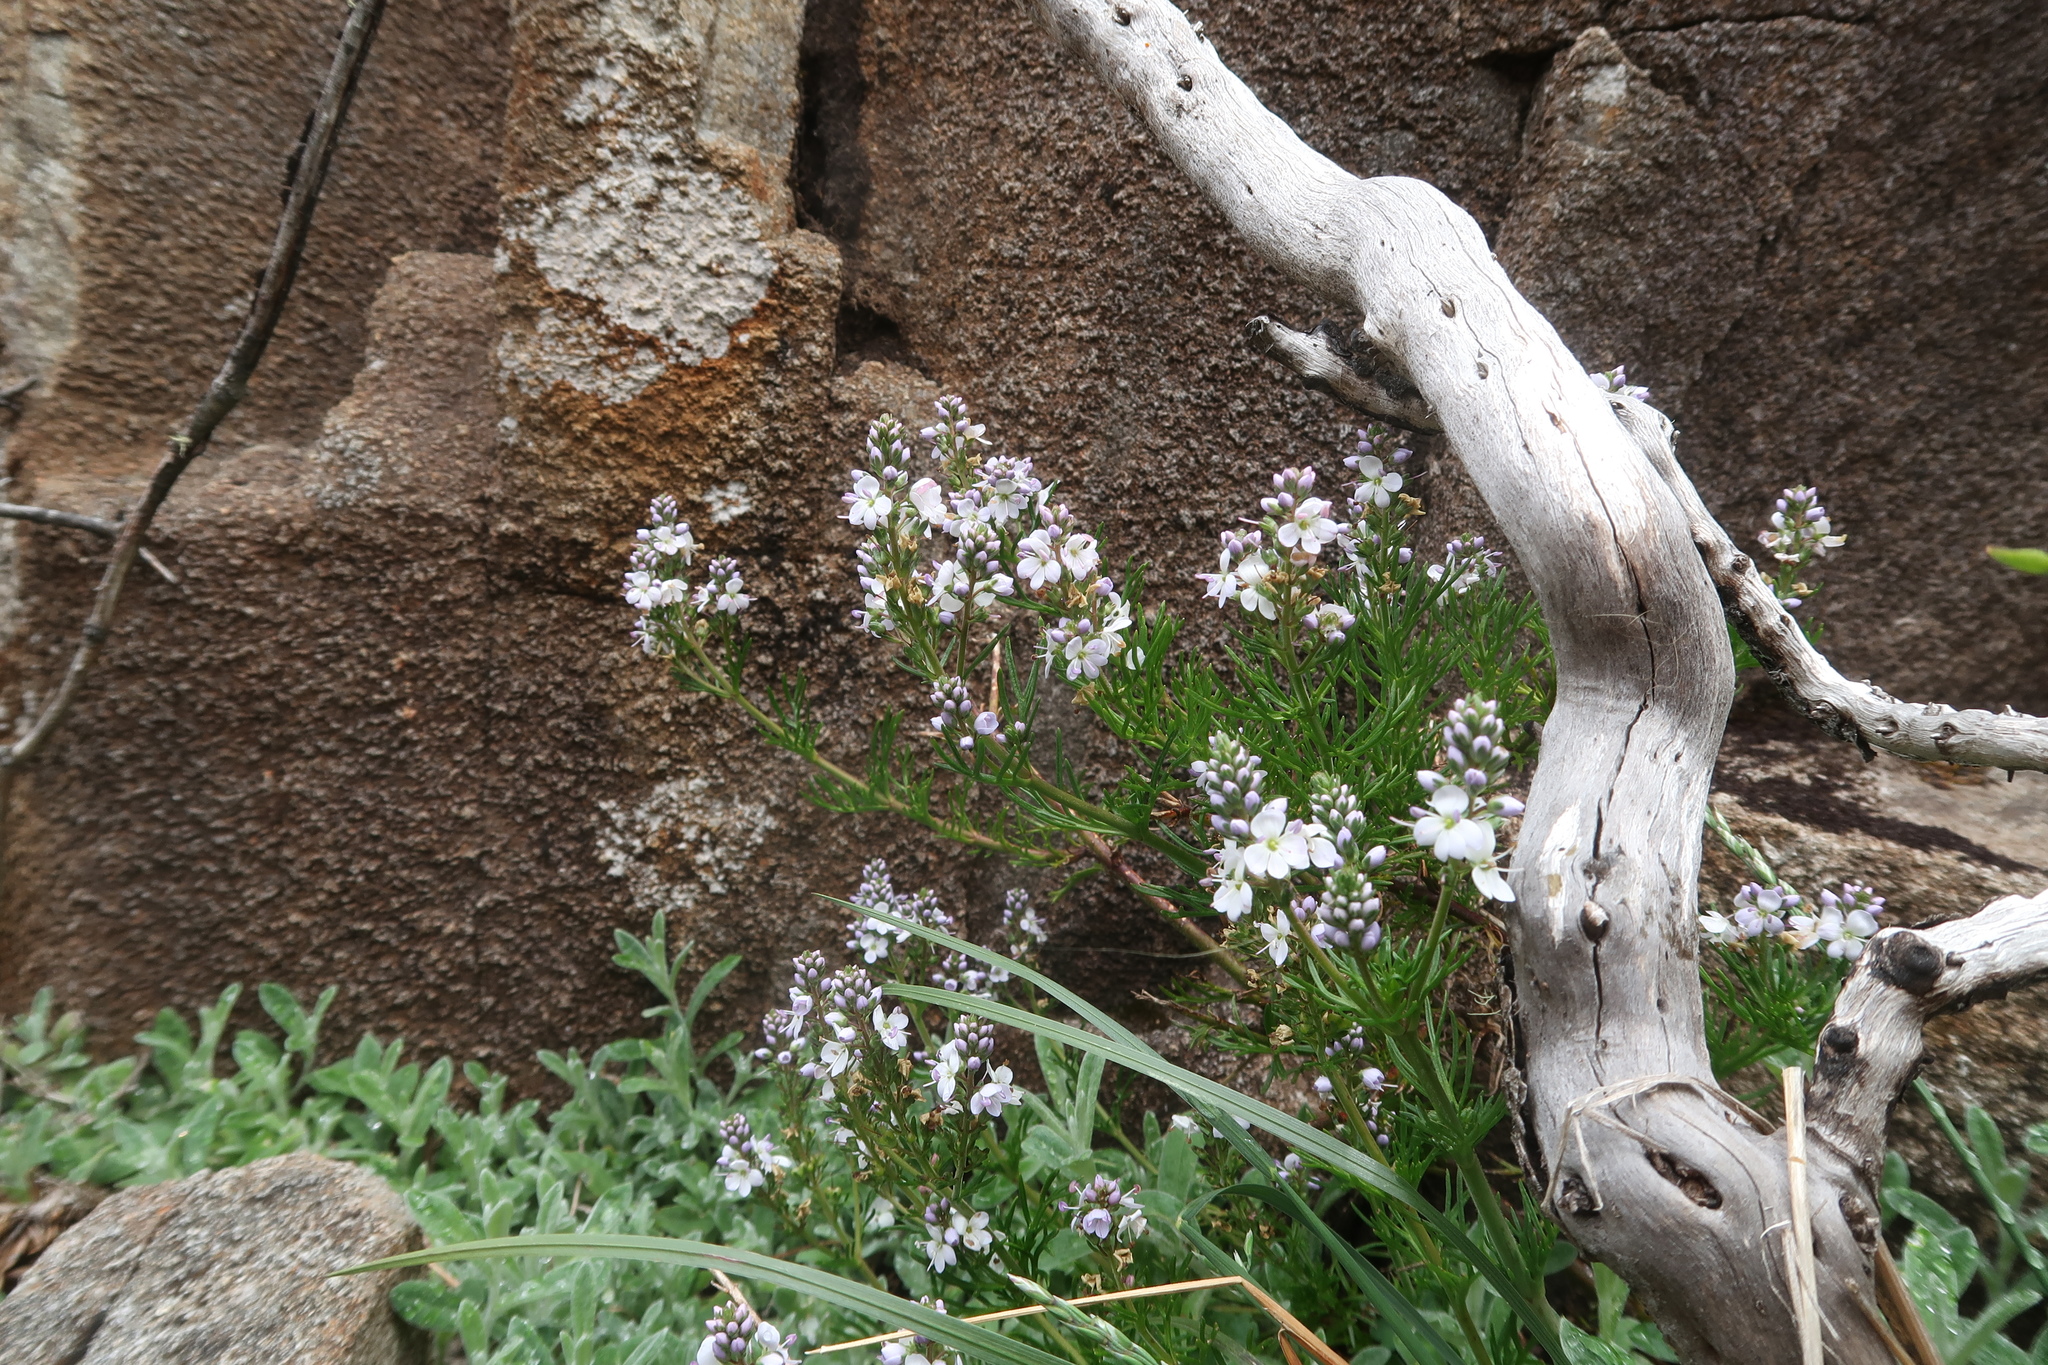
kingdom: Plantae
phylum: Tracheophyta
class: Magnoliopsida
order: Lamiales
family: Plantaginaceae
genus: Veronica
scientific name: Veronica nivea
